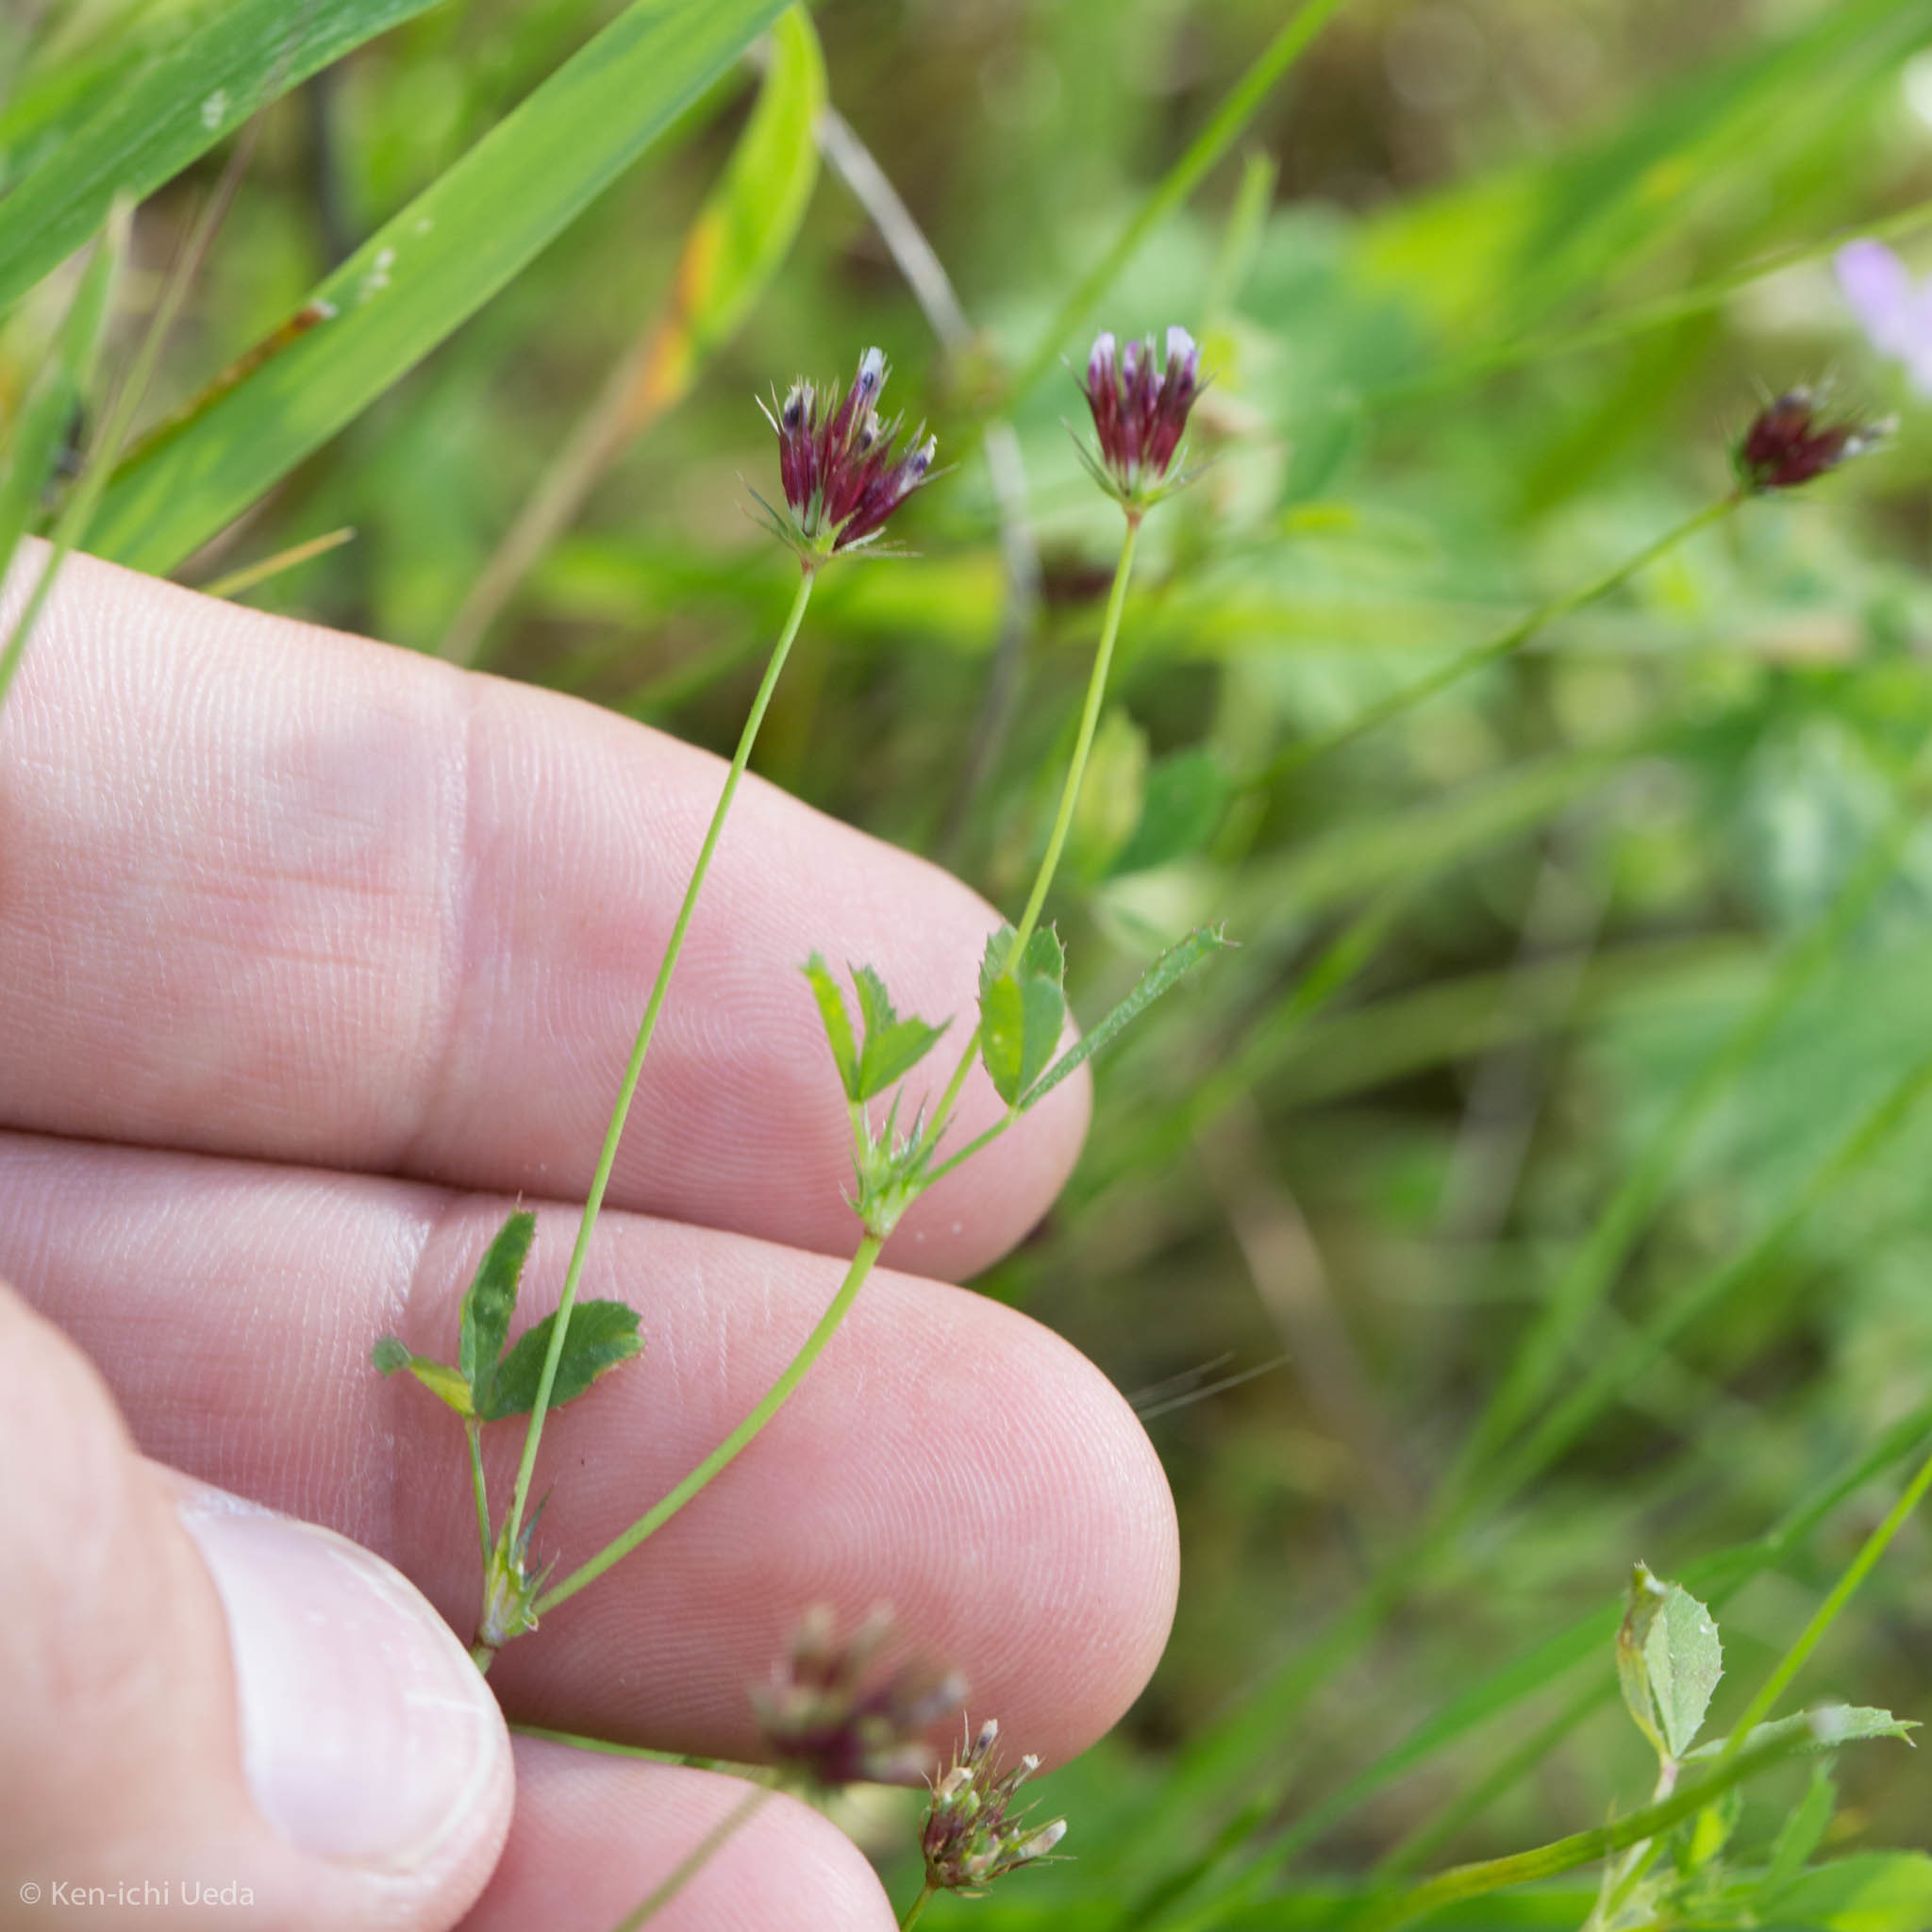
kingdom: Plantae
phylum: Tracheophyta
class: Magnoliopsida
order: Fabales
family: Fabaceae
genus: Trifolium
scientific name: Trifolium oliganthum
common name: Few-flower clover
